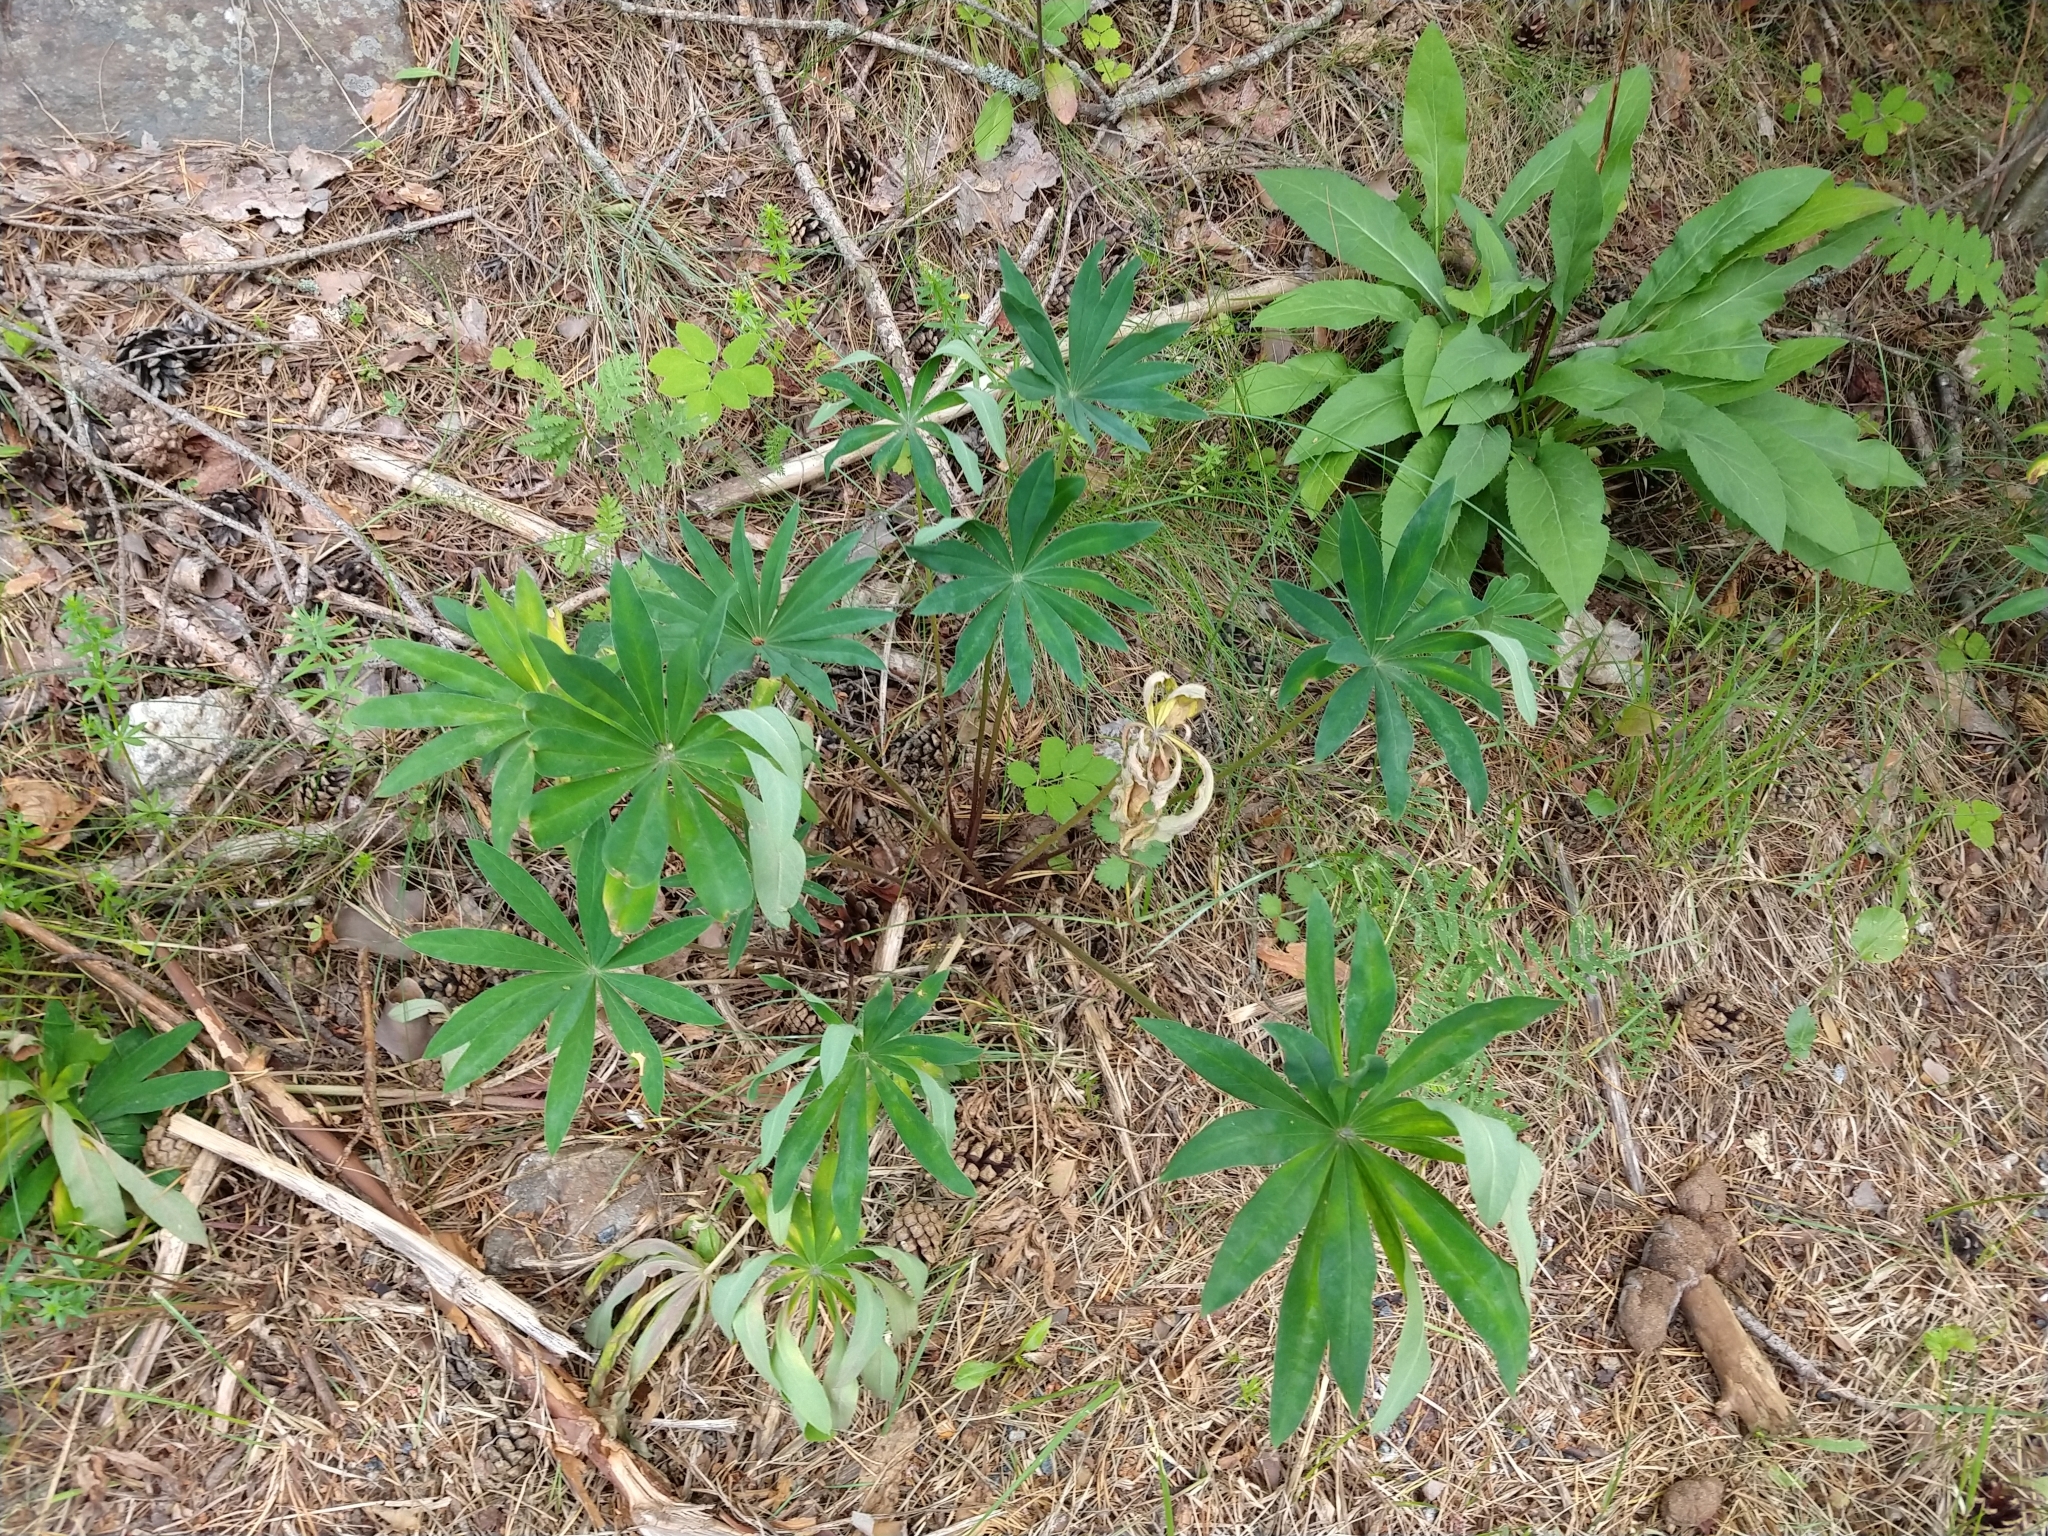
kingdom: Plantae
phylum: Tracheophyta
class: Magnoliopsida
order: Fabales
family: Fabaceae
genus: Lupinus
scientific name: Lupinus polyphyllus
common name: Garden lupin
